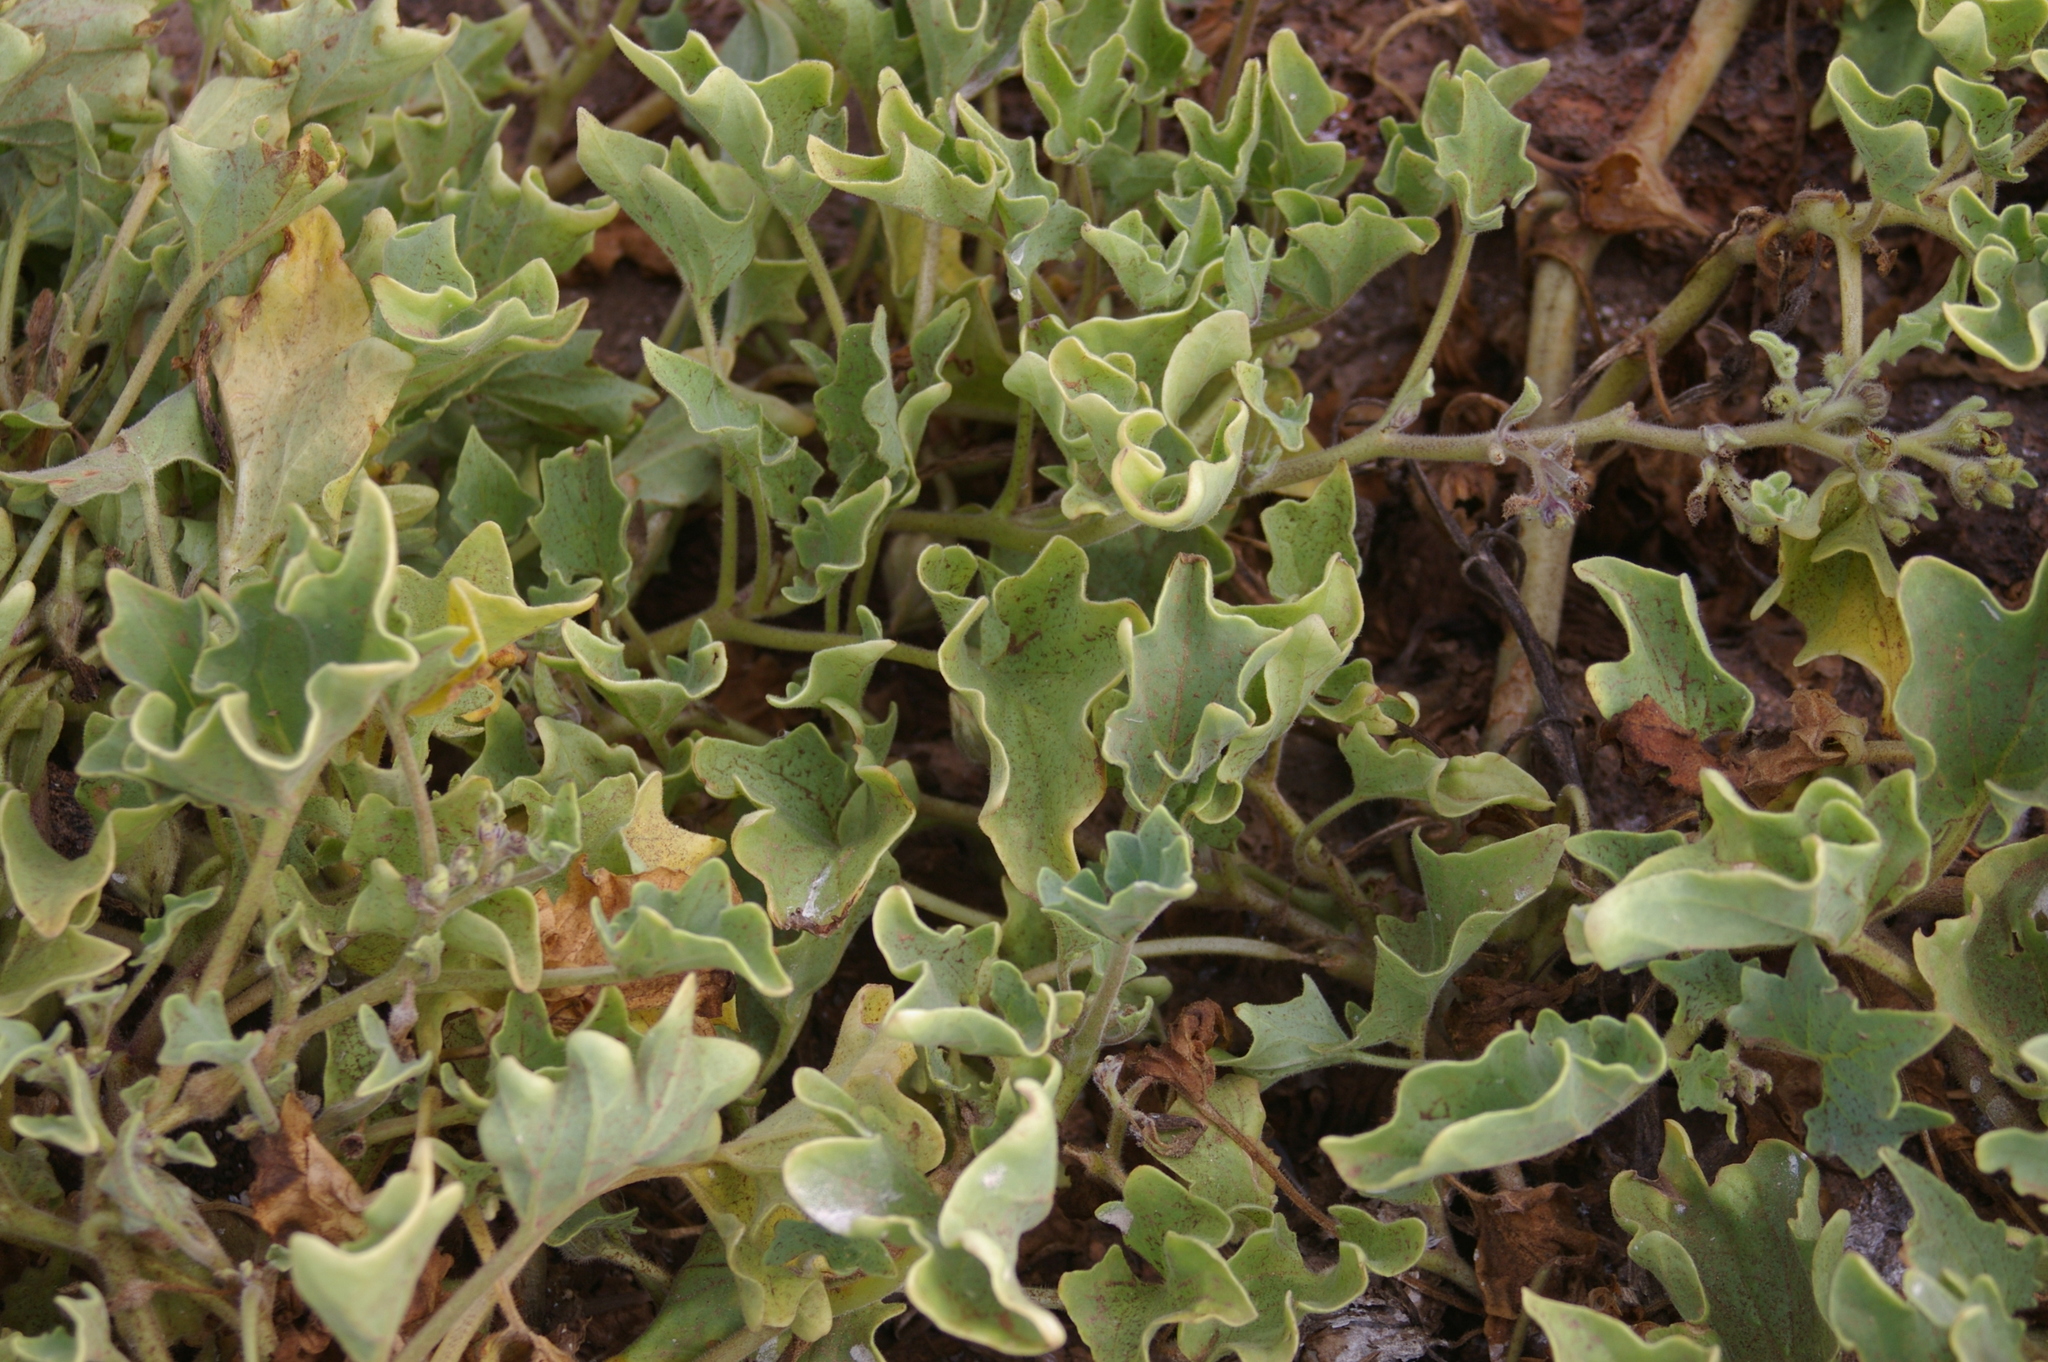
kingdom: Plantae
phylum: Tracheophyta
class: Magnoliopsida
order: Solanales
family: Solanaceae
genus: Exodeconus
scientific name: Exodeconus miersii
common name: Galapagos shore petunia
